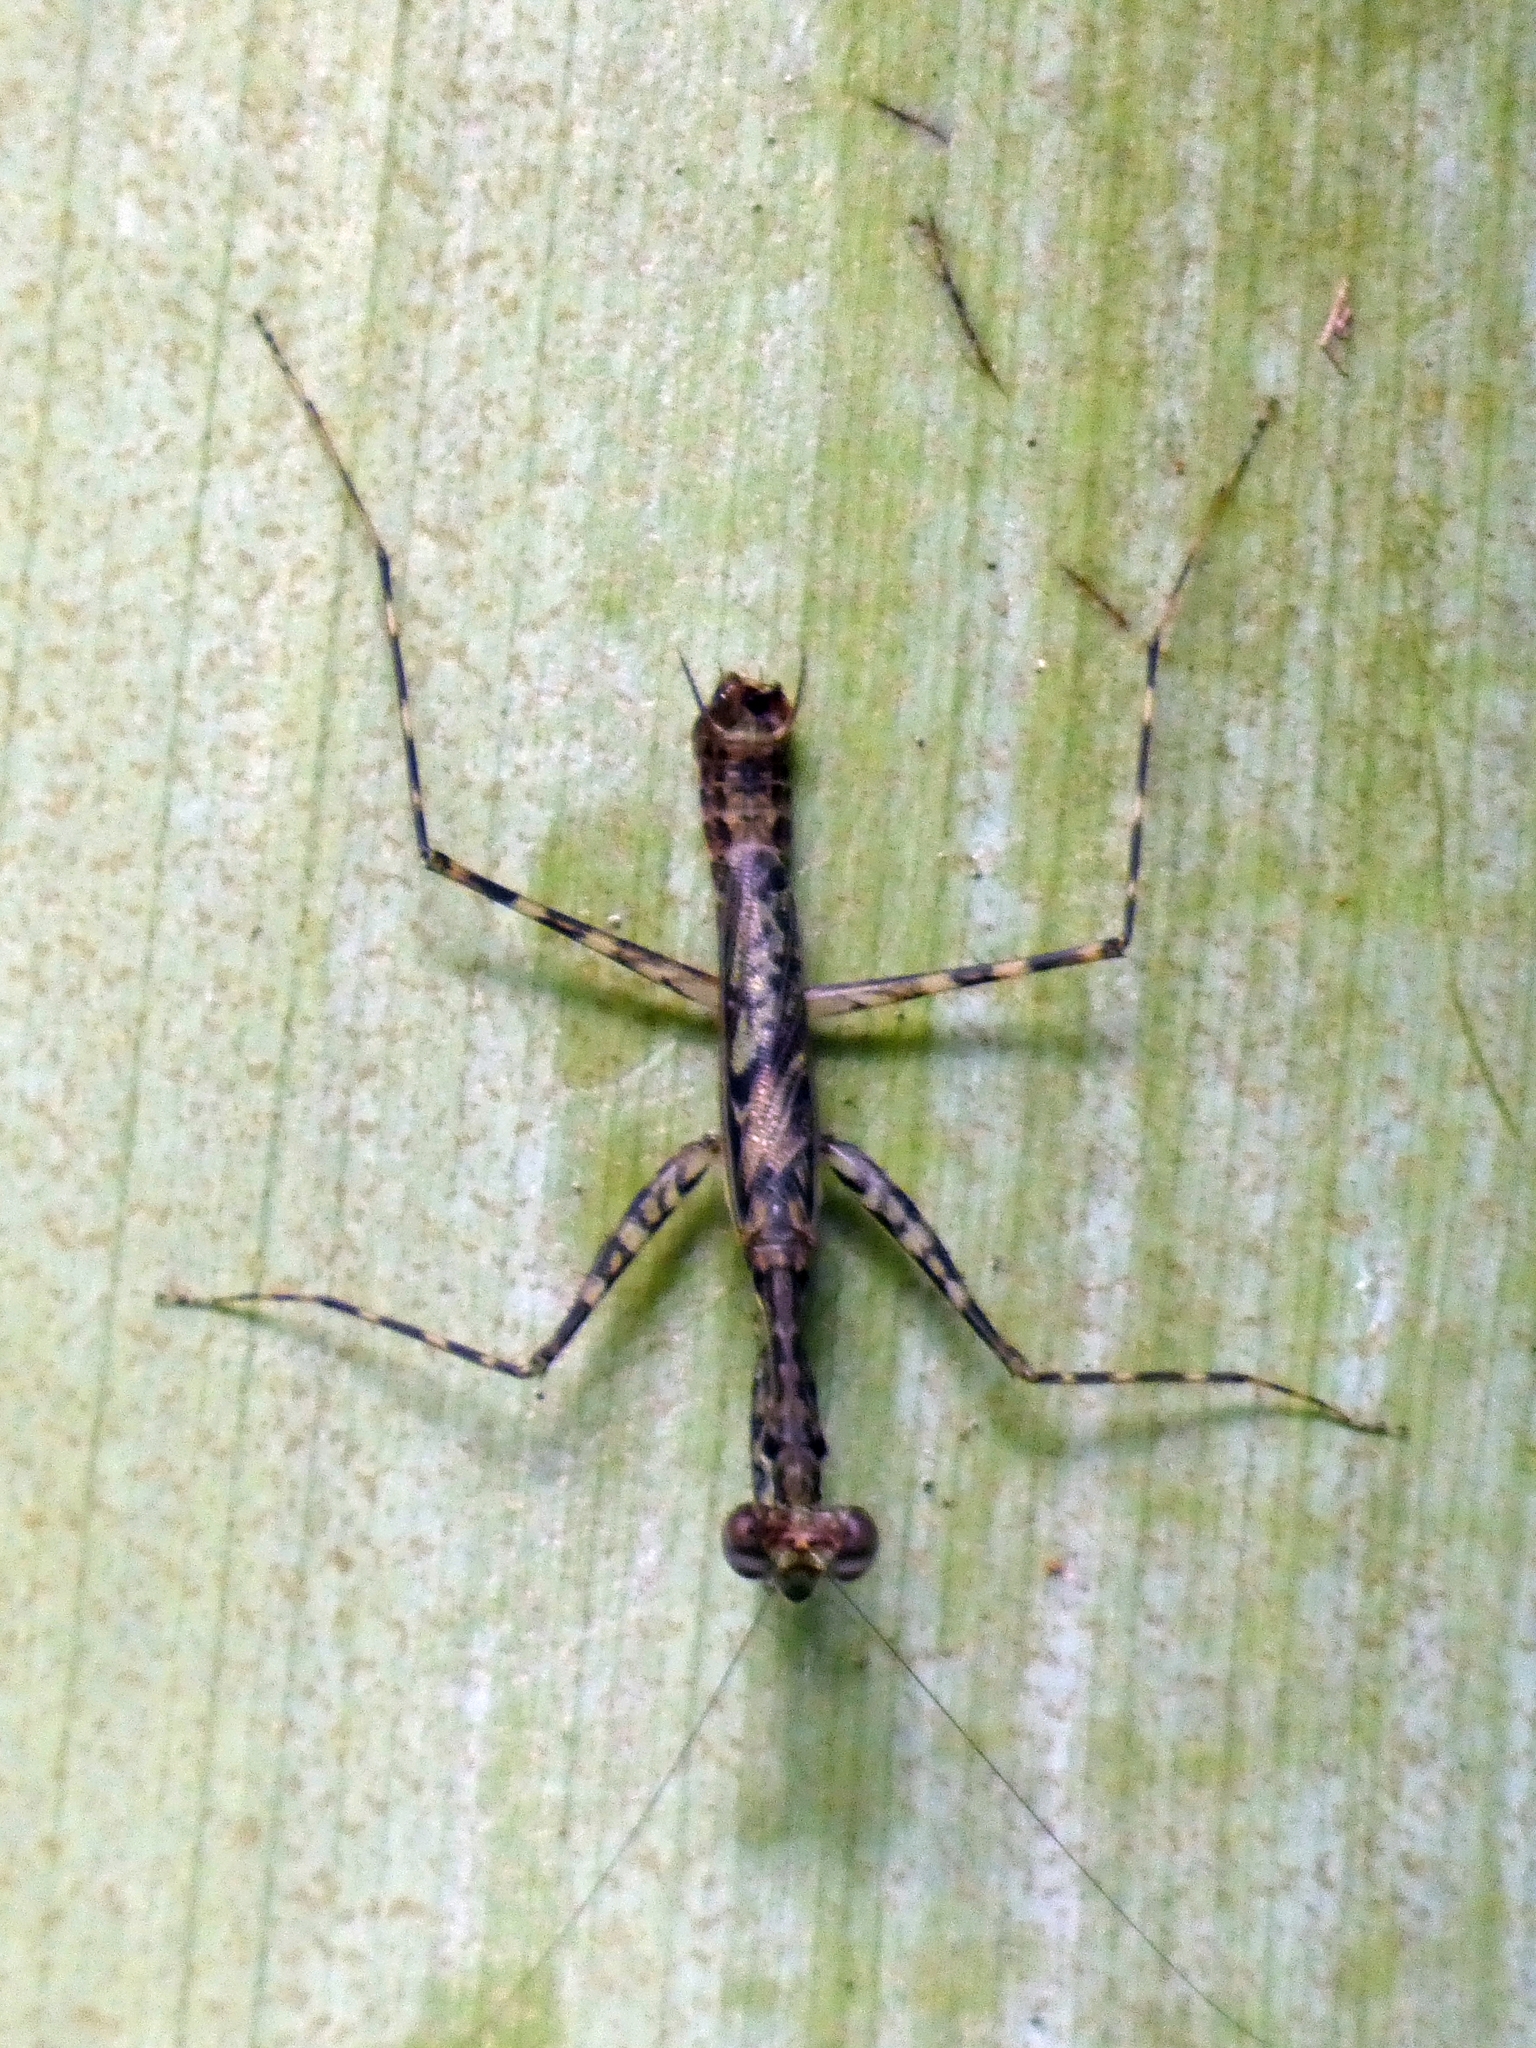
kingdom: Animalia
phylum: Arthropoda
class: Insecta
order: Mantodea
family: Nanomantidae
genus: Ciulfina
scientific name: Ciulfina rentzi
